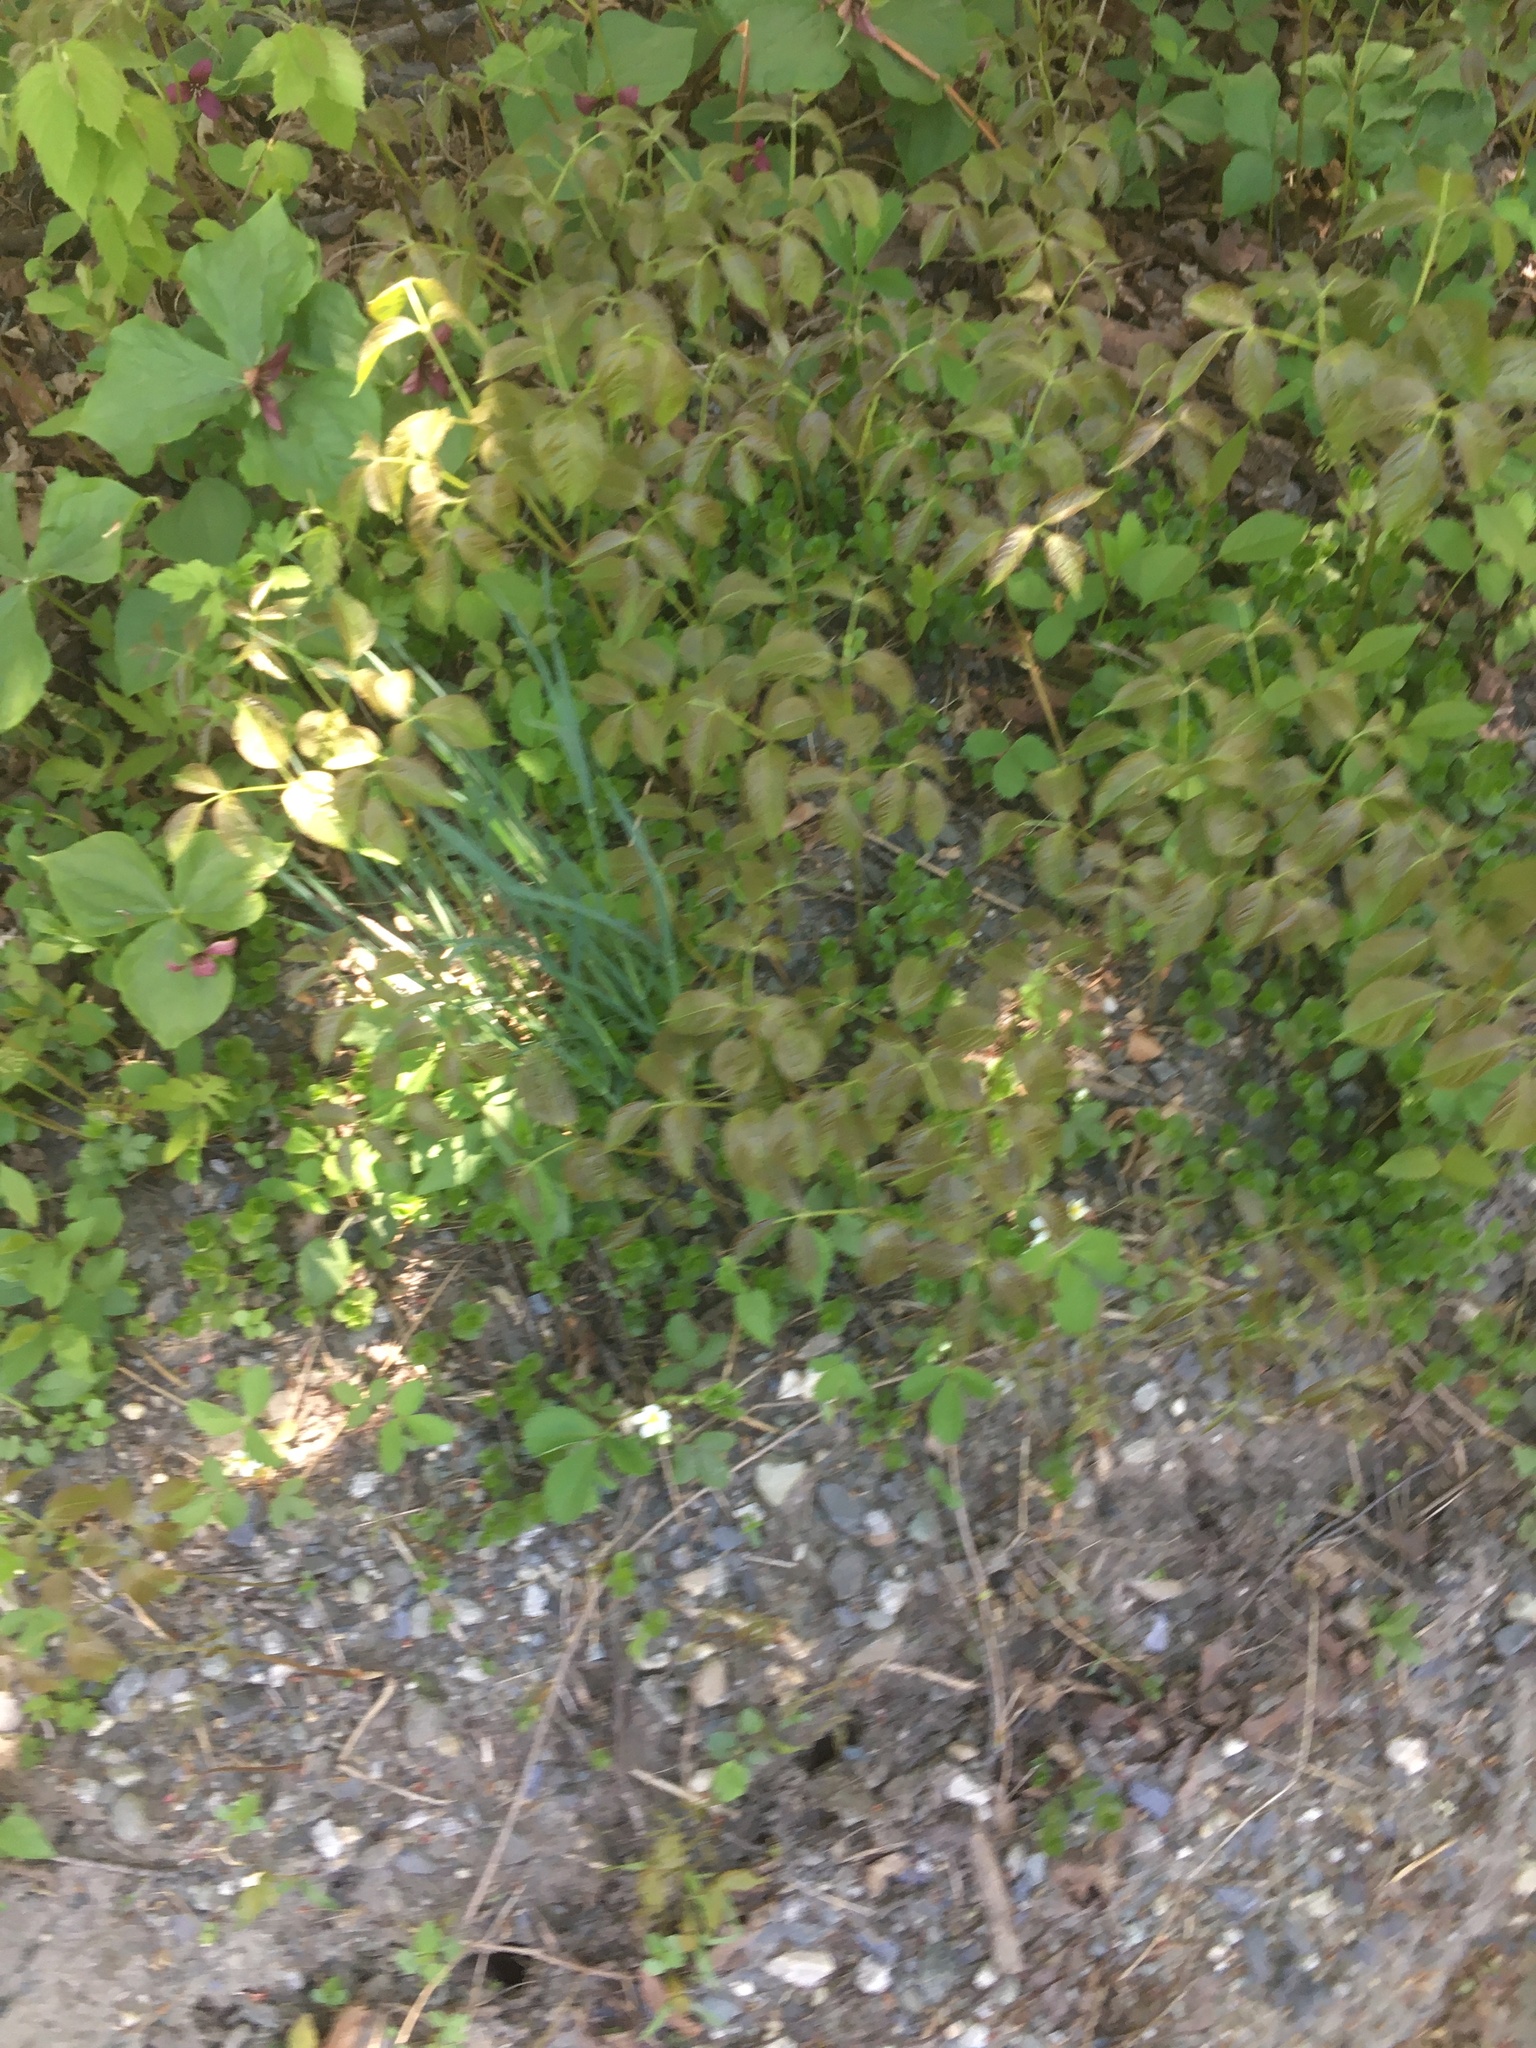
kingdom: Plantae
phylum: Tracheophyta
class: Magnoliopsida
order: Apiales
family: Araliaceae
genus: Aralia
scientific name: Aralia nudicaulis
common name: Wild sarsaparilla
